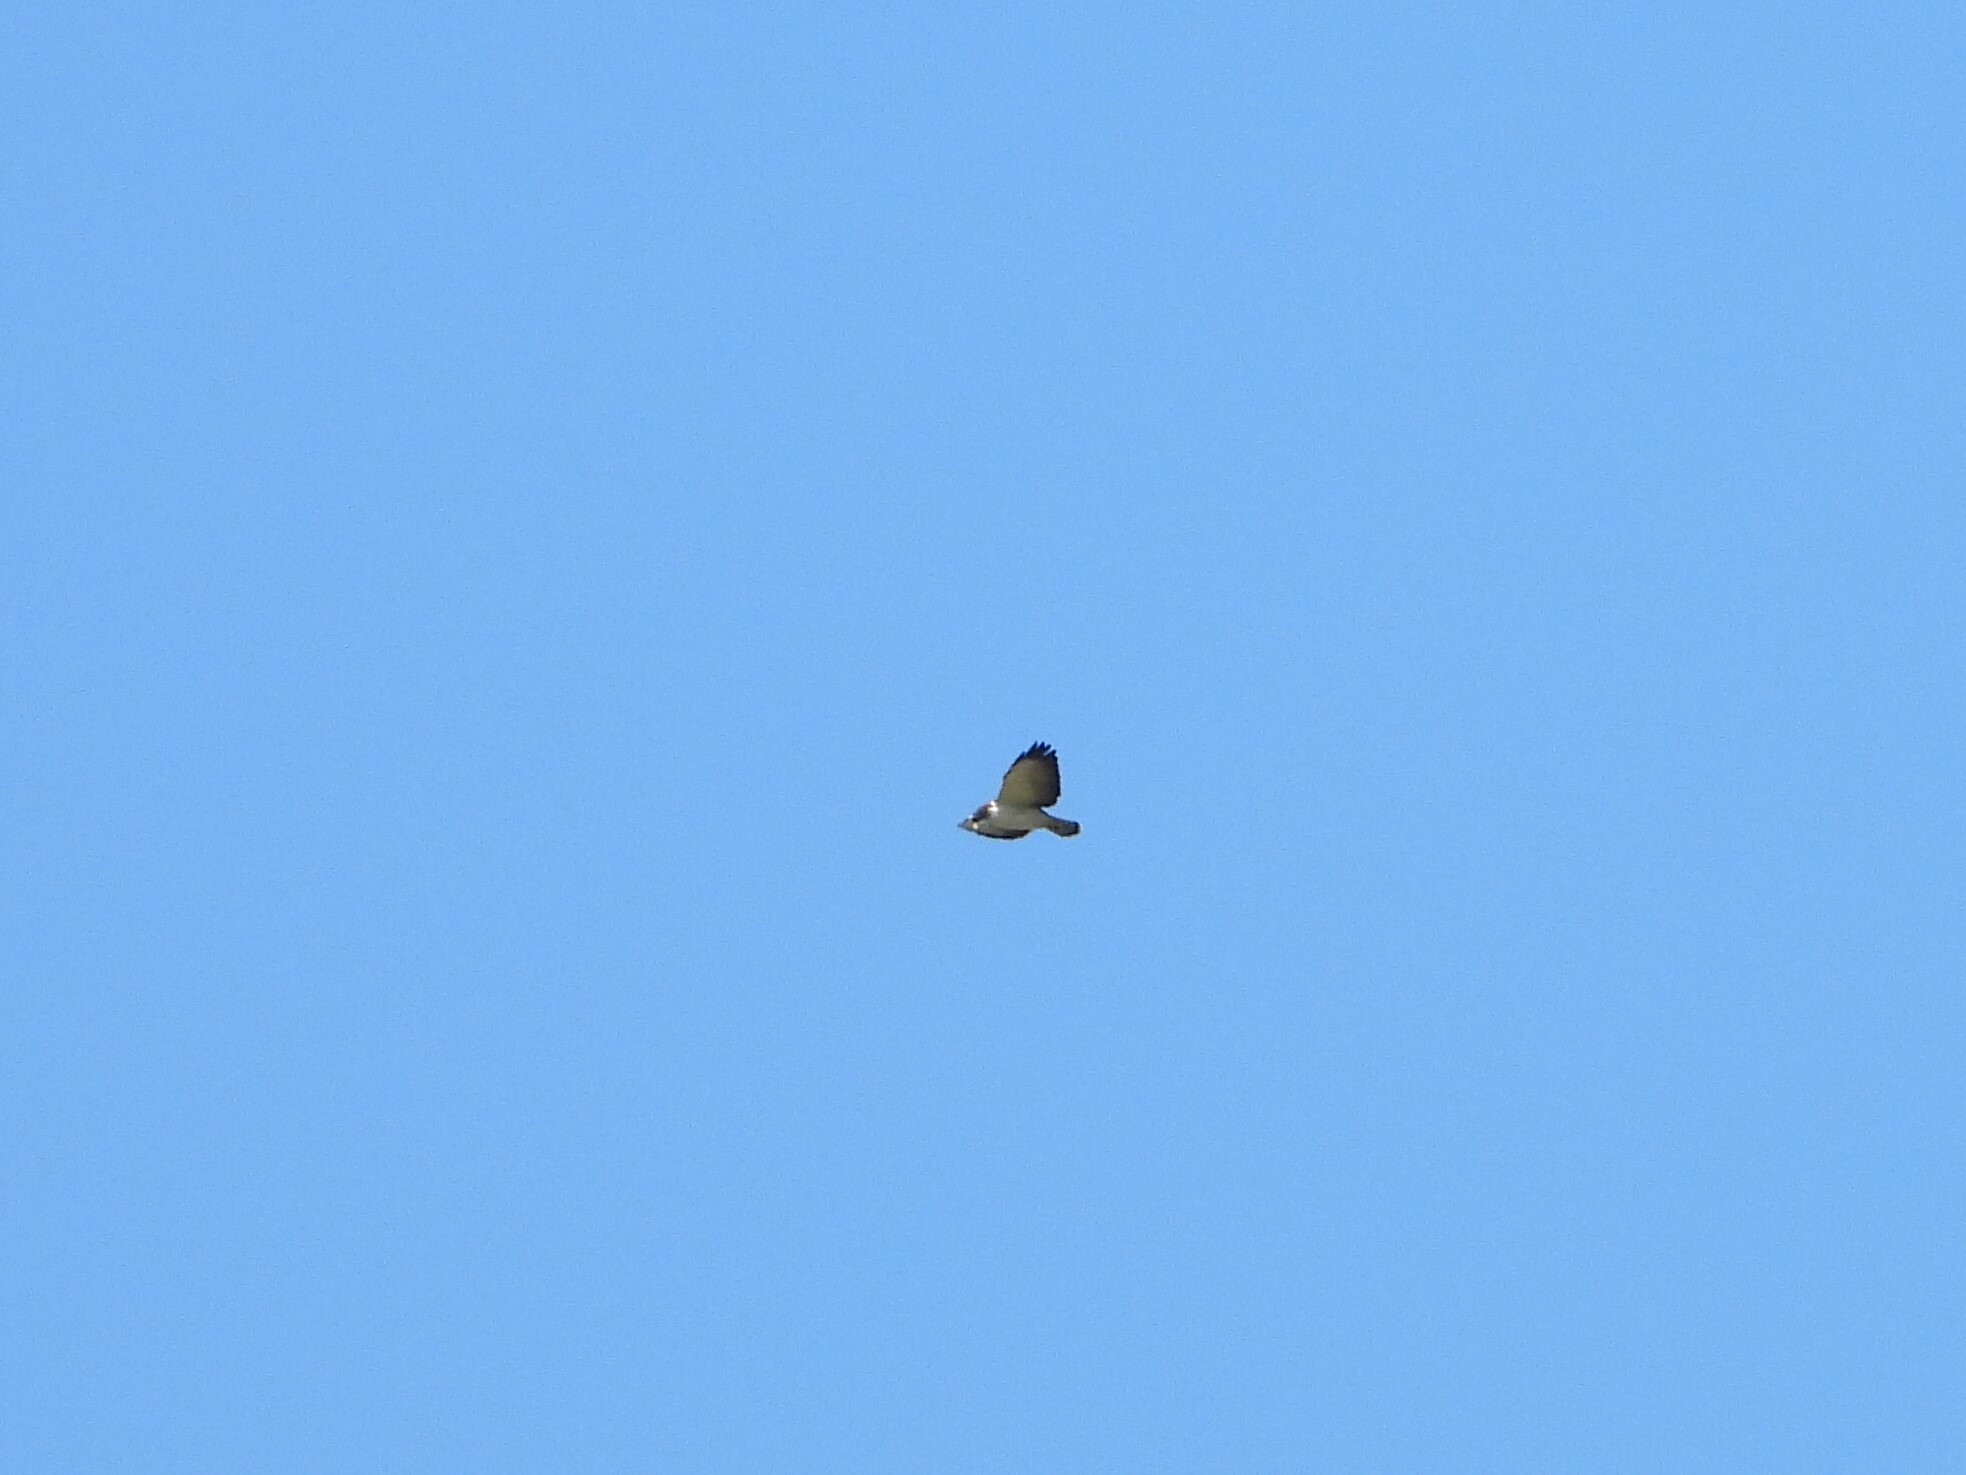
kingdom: Animalia
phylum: Chordata
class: Aves
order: Accipitriformes
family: Accipitridae
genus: Buteo
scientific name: Buteo brachyurus
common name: Short-tailed hawk
